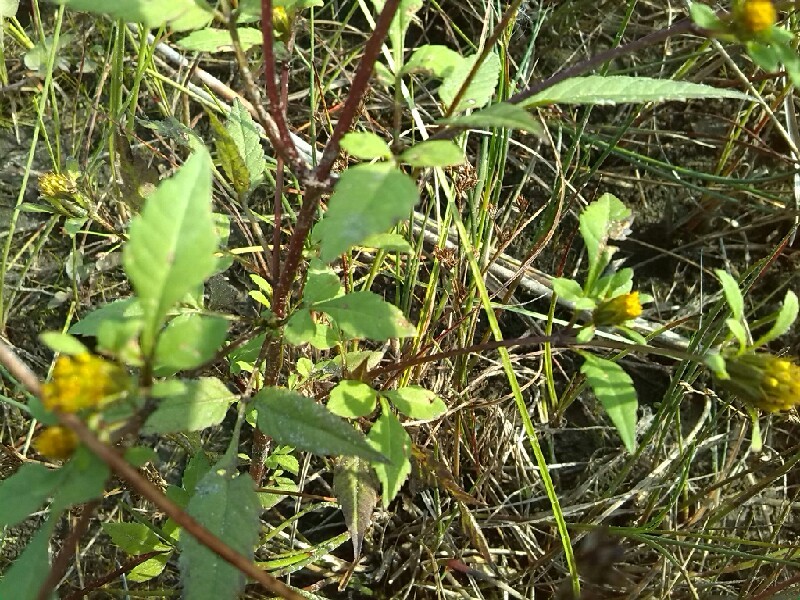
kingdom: Plantae
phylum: Tracheophyta
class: Magnoliopsida
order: Asterales
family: Asteraceae
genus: Bidens
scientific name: Bidens frondosa
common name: Beggarticks
